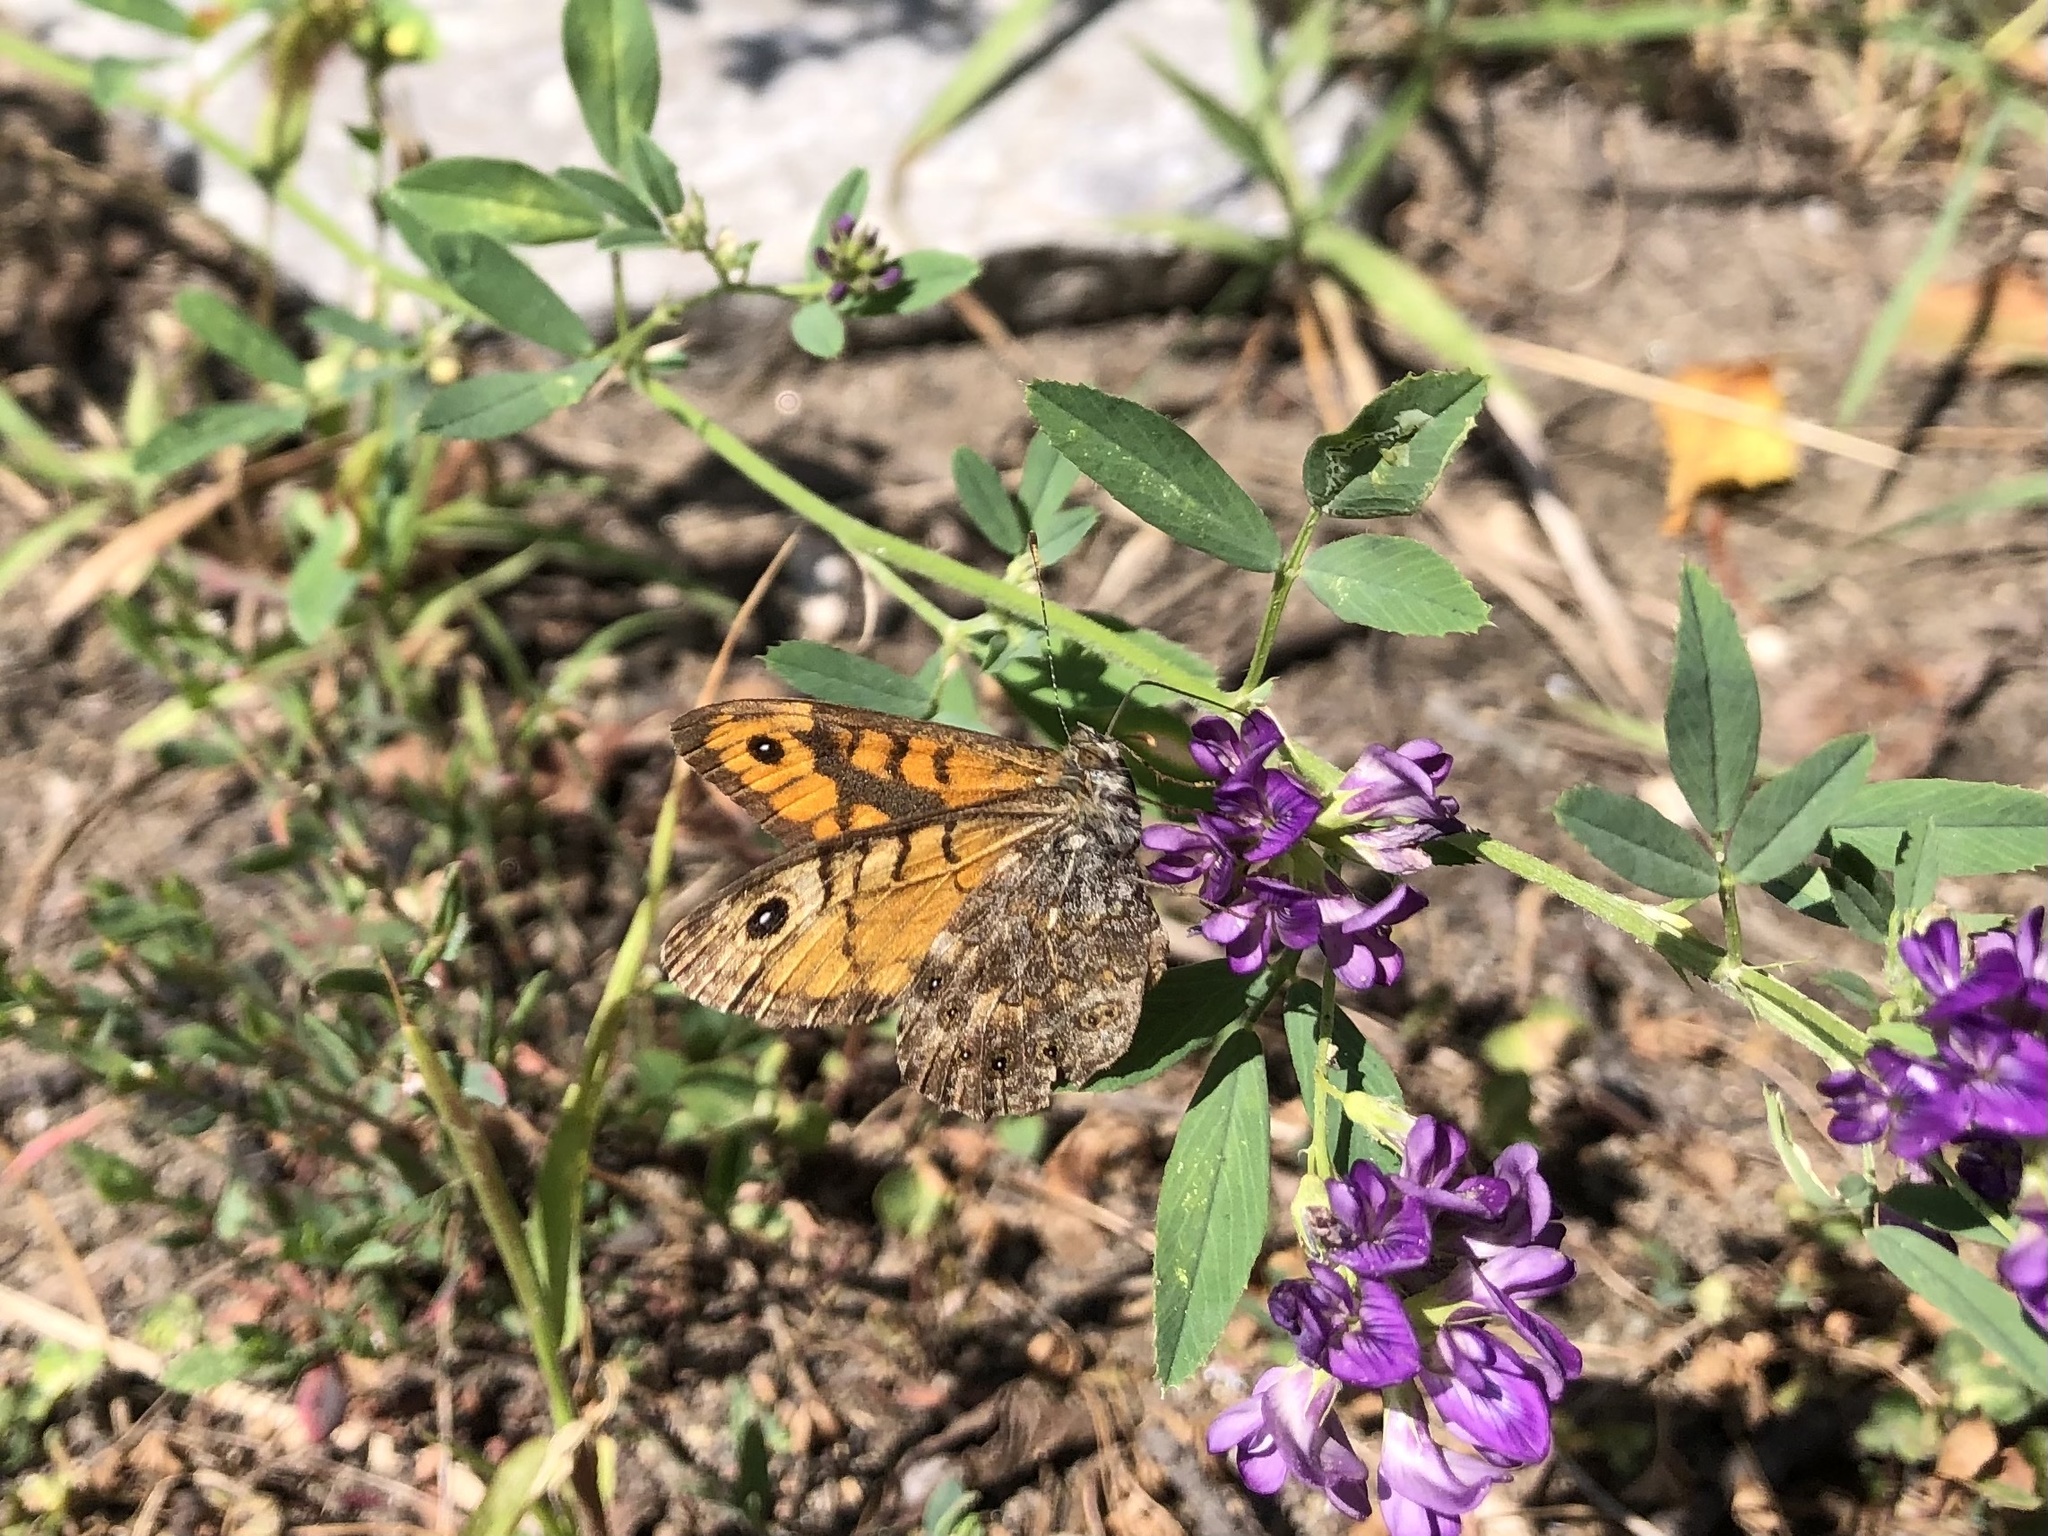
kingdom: Animalia
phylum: Arthropoda
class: Insecta
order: Lepidoptera
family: Nymphalidae
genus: Pararge
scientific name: Pararge Lasiommata megera
